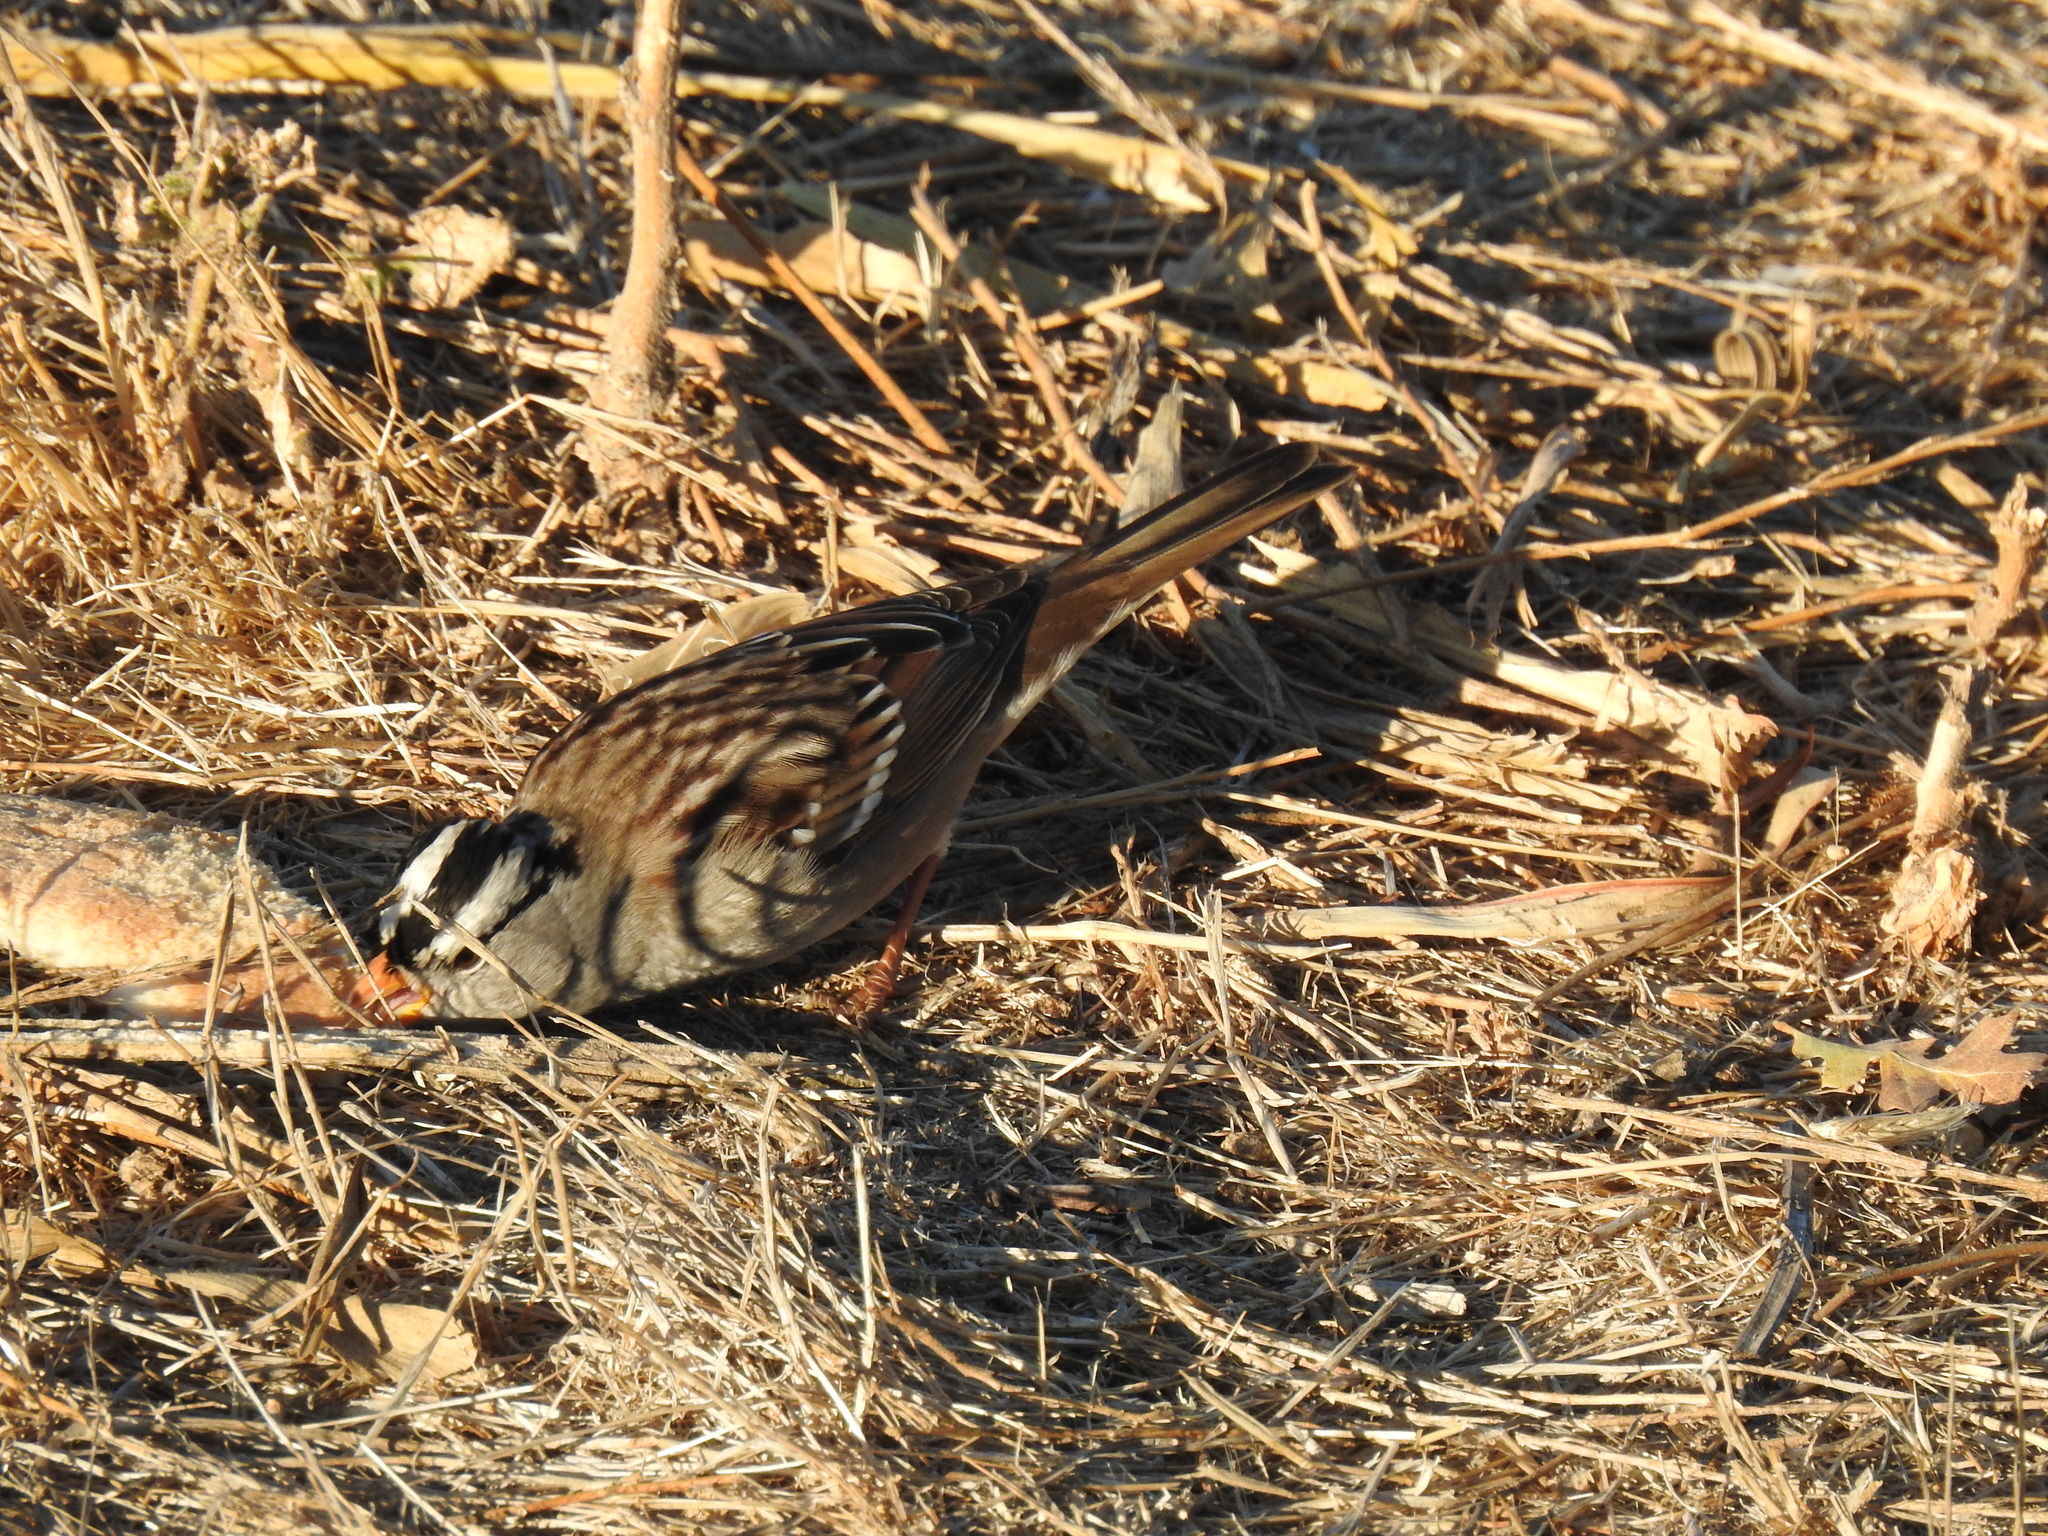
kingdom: Animalia
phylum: Chordata
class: Aves
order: Passeriformes
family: Passerellidae
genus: Zonotrichia
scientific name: Zonotrichia leucophrys
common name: White-crowned sparrow
